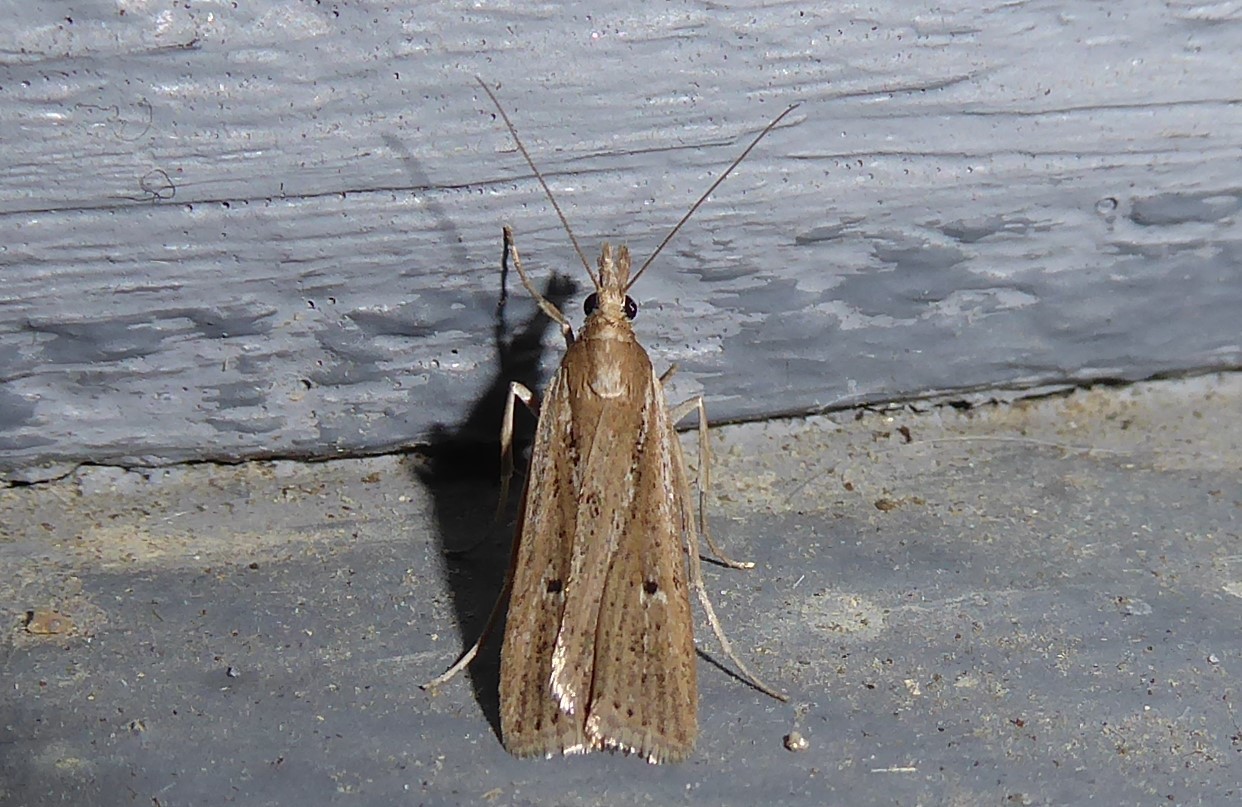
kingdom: Animalia
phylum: Arthropoda
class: Insecta
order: Lepidoptera
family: Crambidae
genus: Eudonia
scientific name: Eudonia sabulosella
